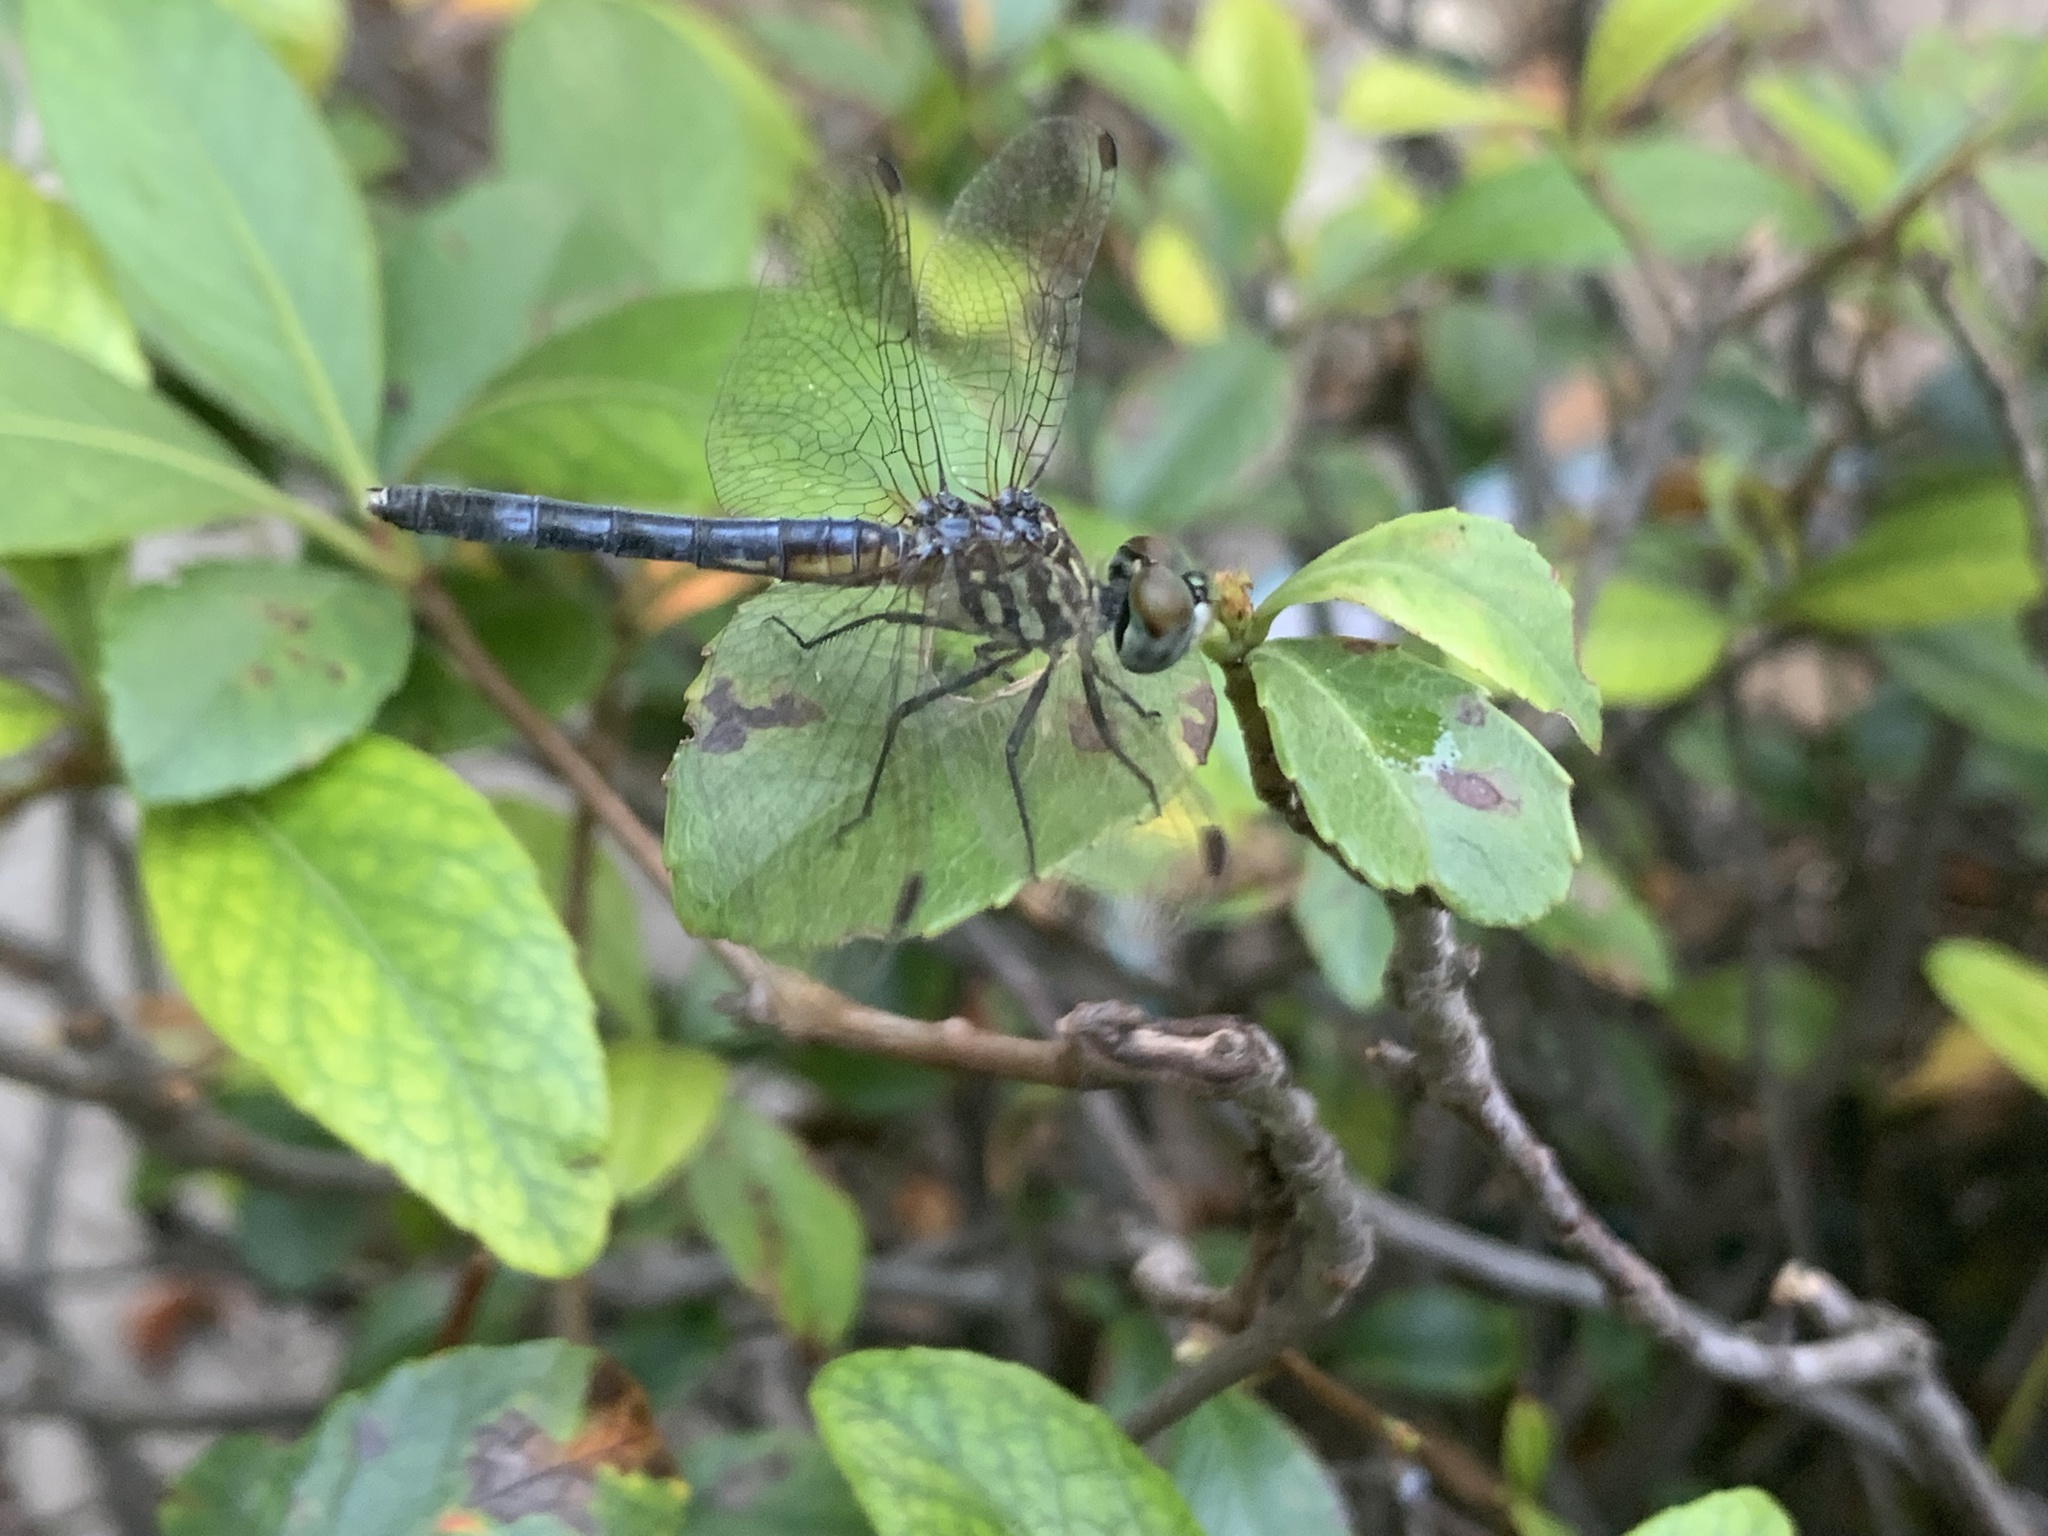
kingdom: Animalia
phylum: Arthropoda
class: Insecta
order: Odonata
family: Libellulidae
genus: Pachydiplax
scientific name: Pachydiplax longipennis
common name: Blue dasher
